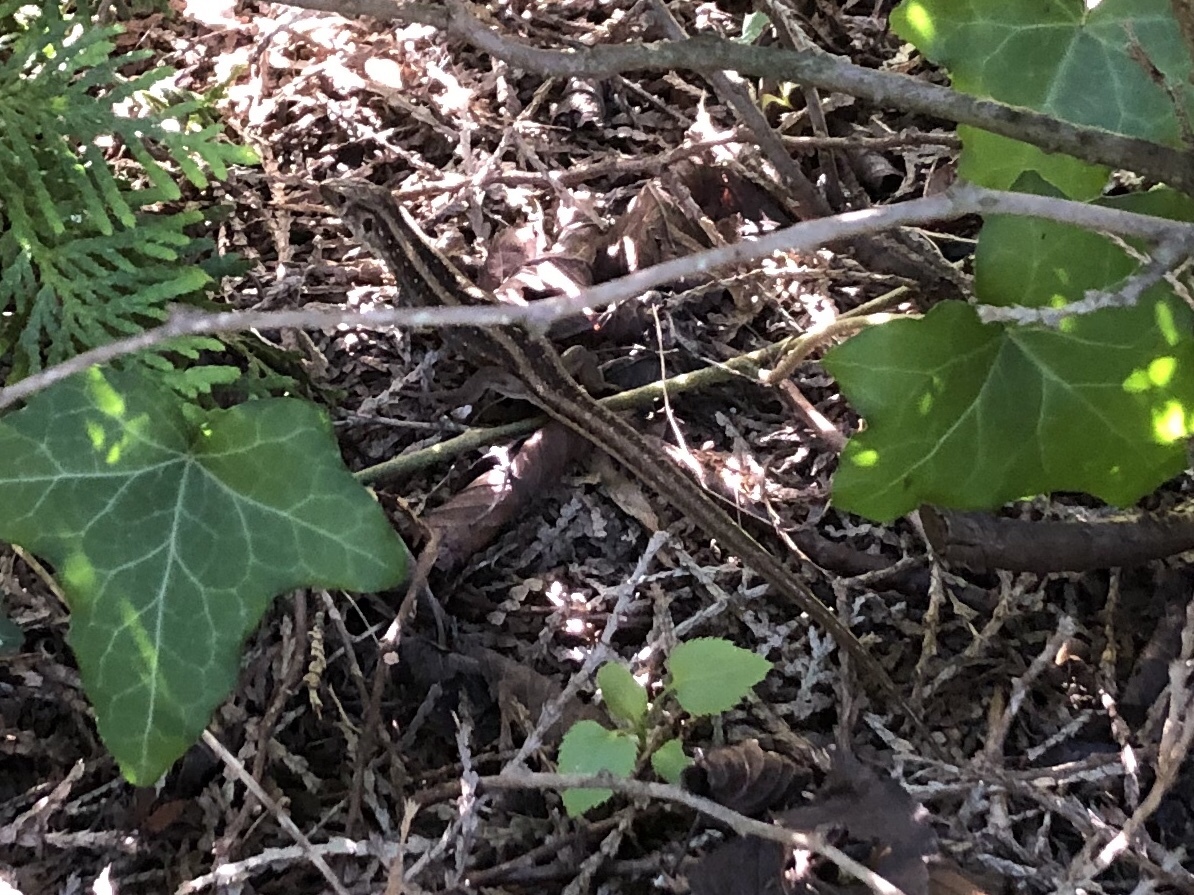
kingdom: Animalia
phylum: Chordata
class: Squamata
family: Lacertidae
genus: Lacerta
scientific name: Lacerta agilis
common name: Sand lizard
